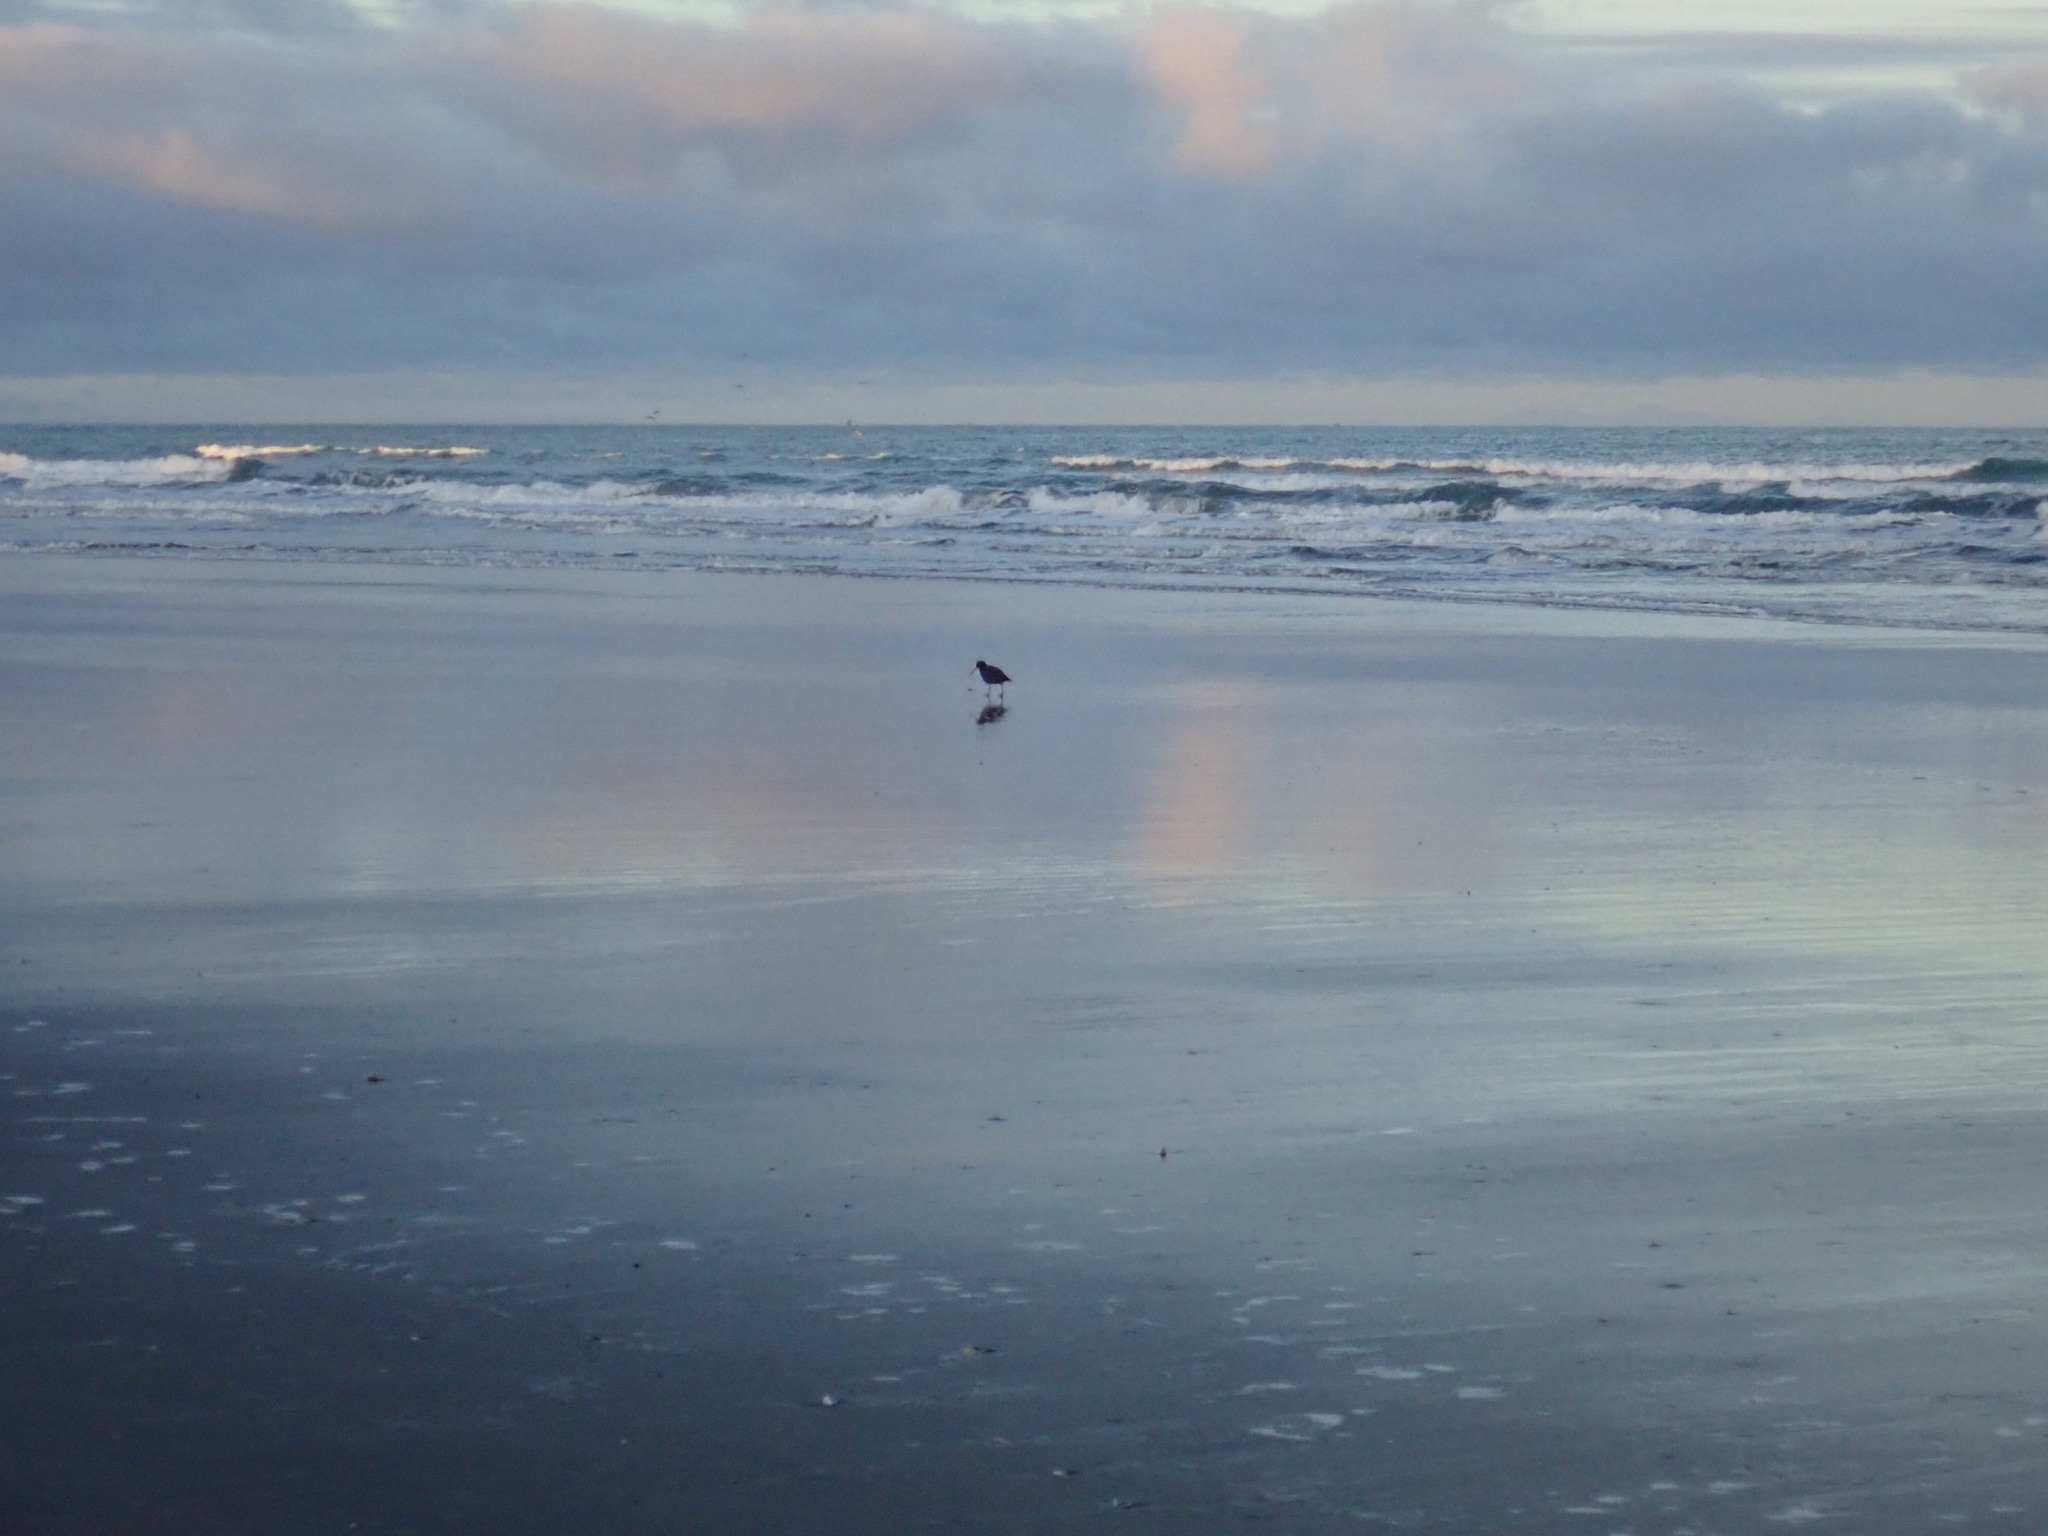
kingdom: Animalia
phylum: Chordata
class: Aves
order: Charadriiformes
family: Haematopodidae
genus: Haematopus
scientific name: Haematopus unicolor
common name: Variable oystercatcher
